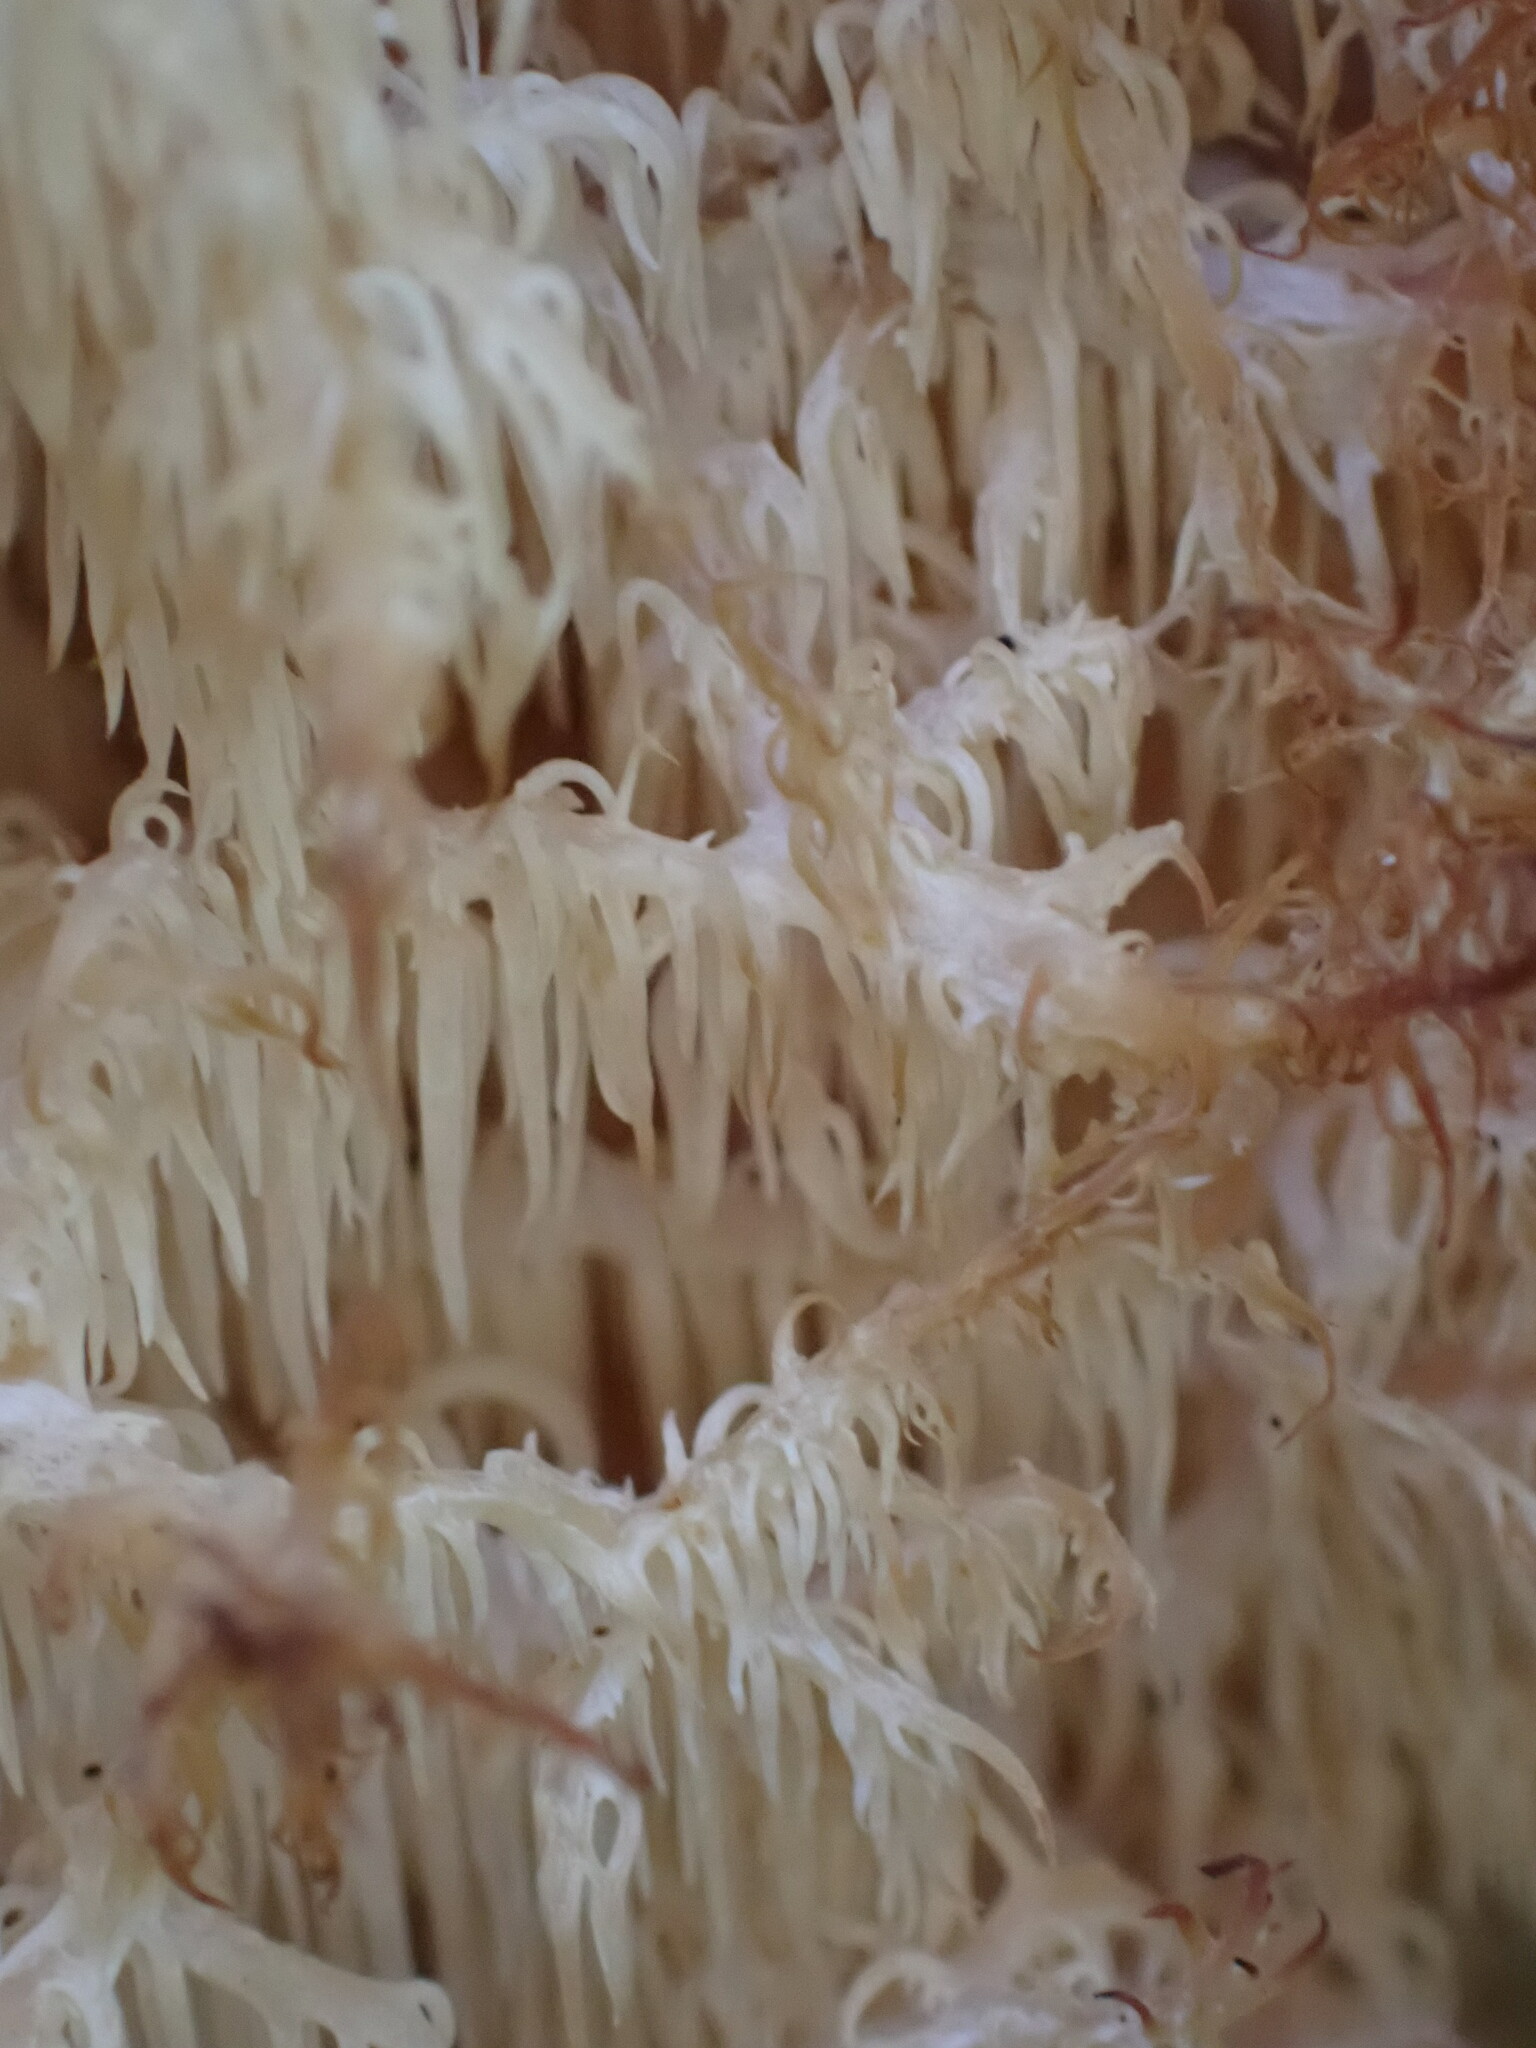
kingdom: Fungi
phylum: Basidiomycota
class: Agaricomycetes
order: Russulales
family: Hericiaceae
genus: Hericium
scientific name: Hericium novae-zealandiae
